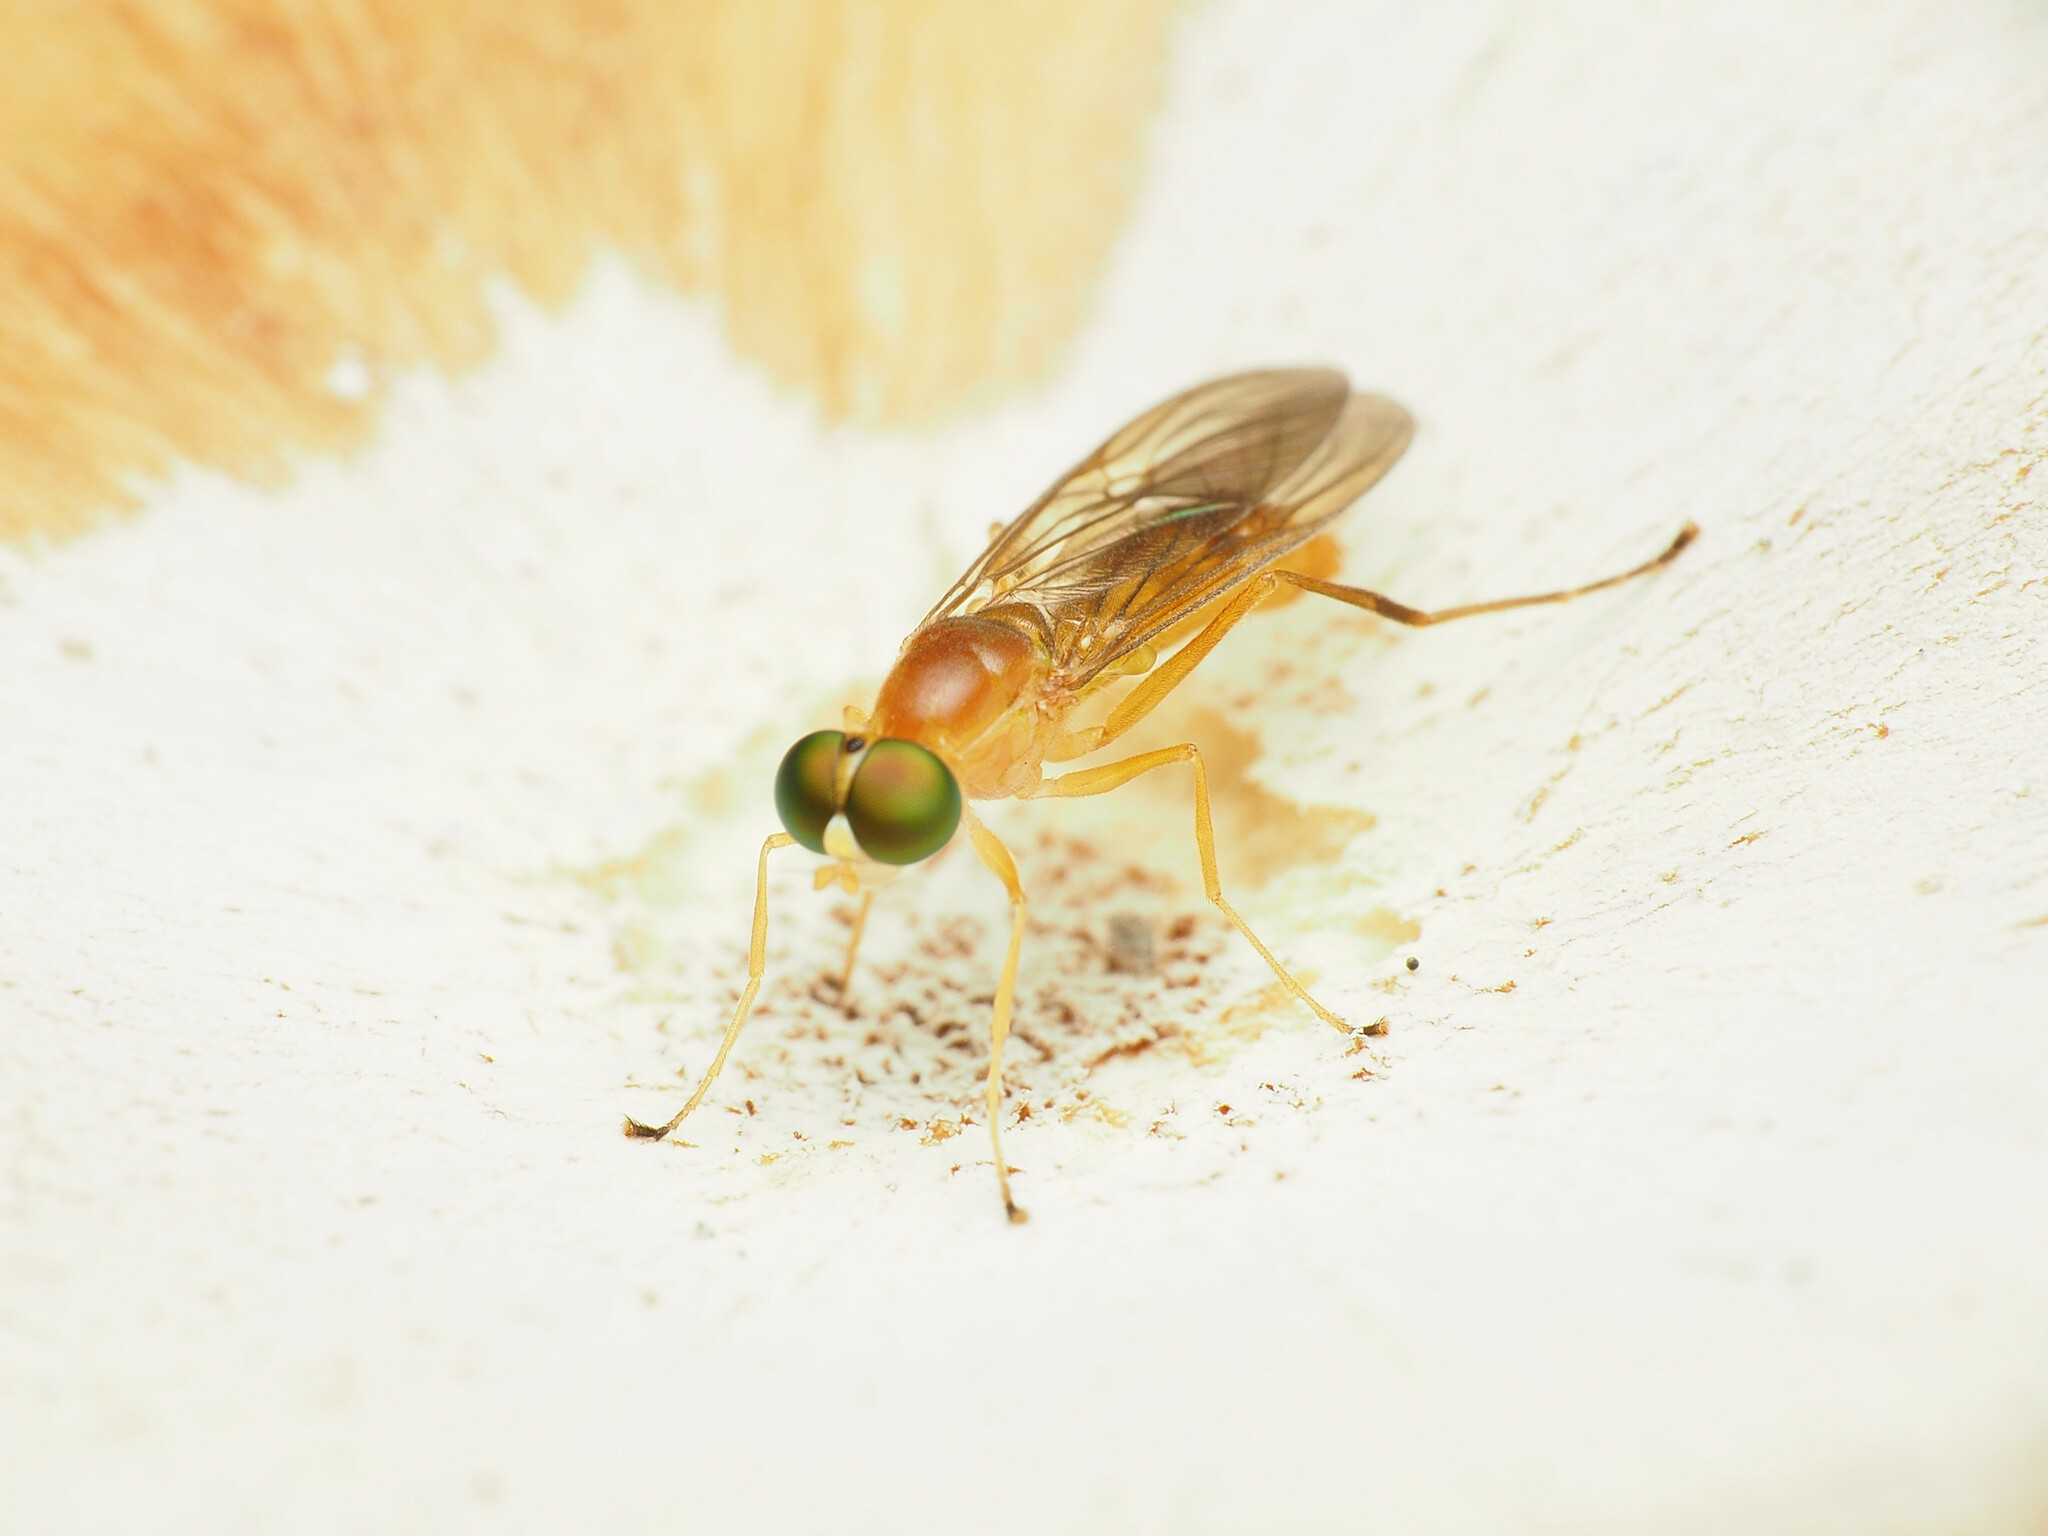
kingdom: Animalia
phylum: Arthropoda
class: Insecta
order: Diptera
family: Stratiomyidae
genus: Ptecticus
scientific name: Ptecticus trivittatus
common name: Compost fly
